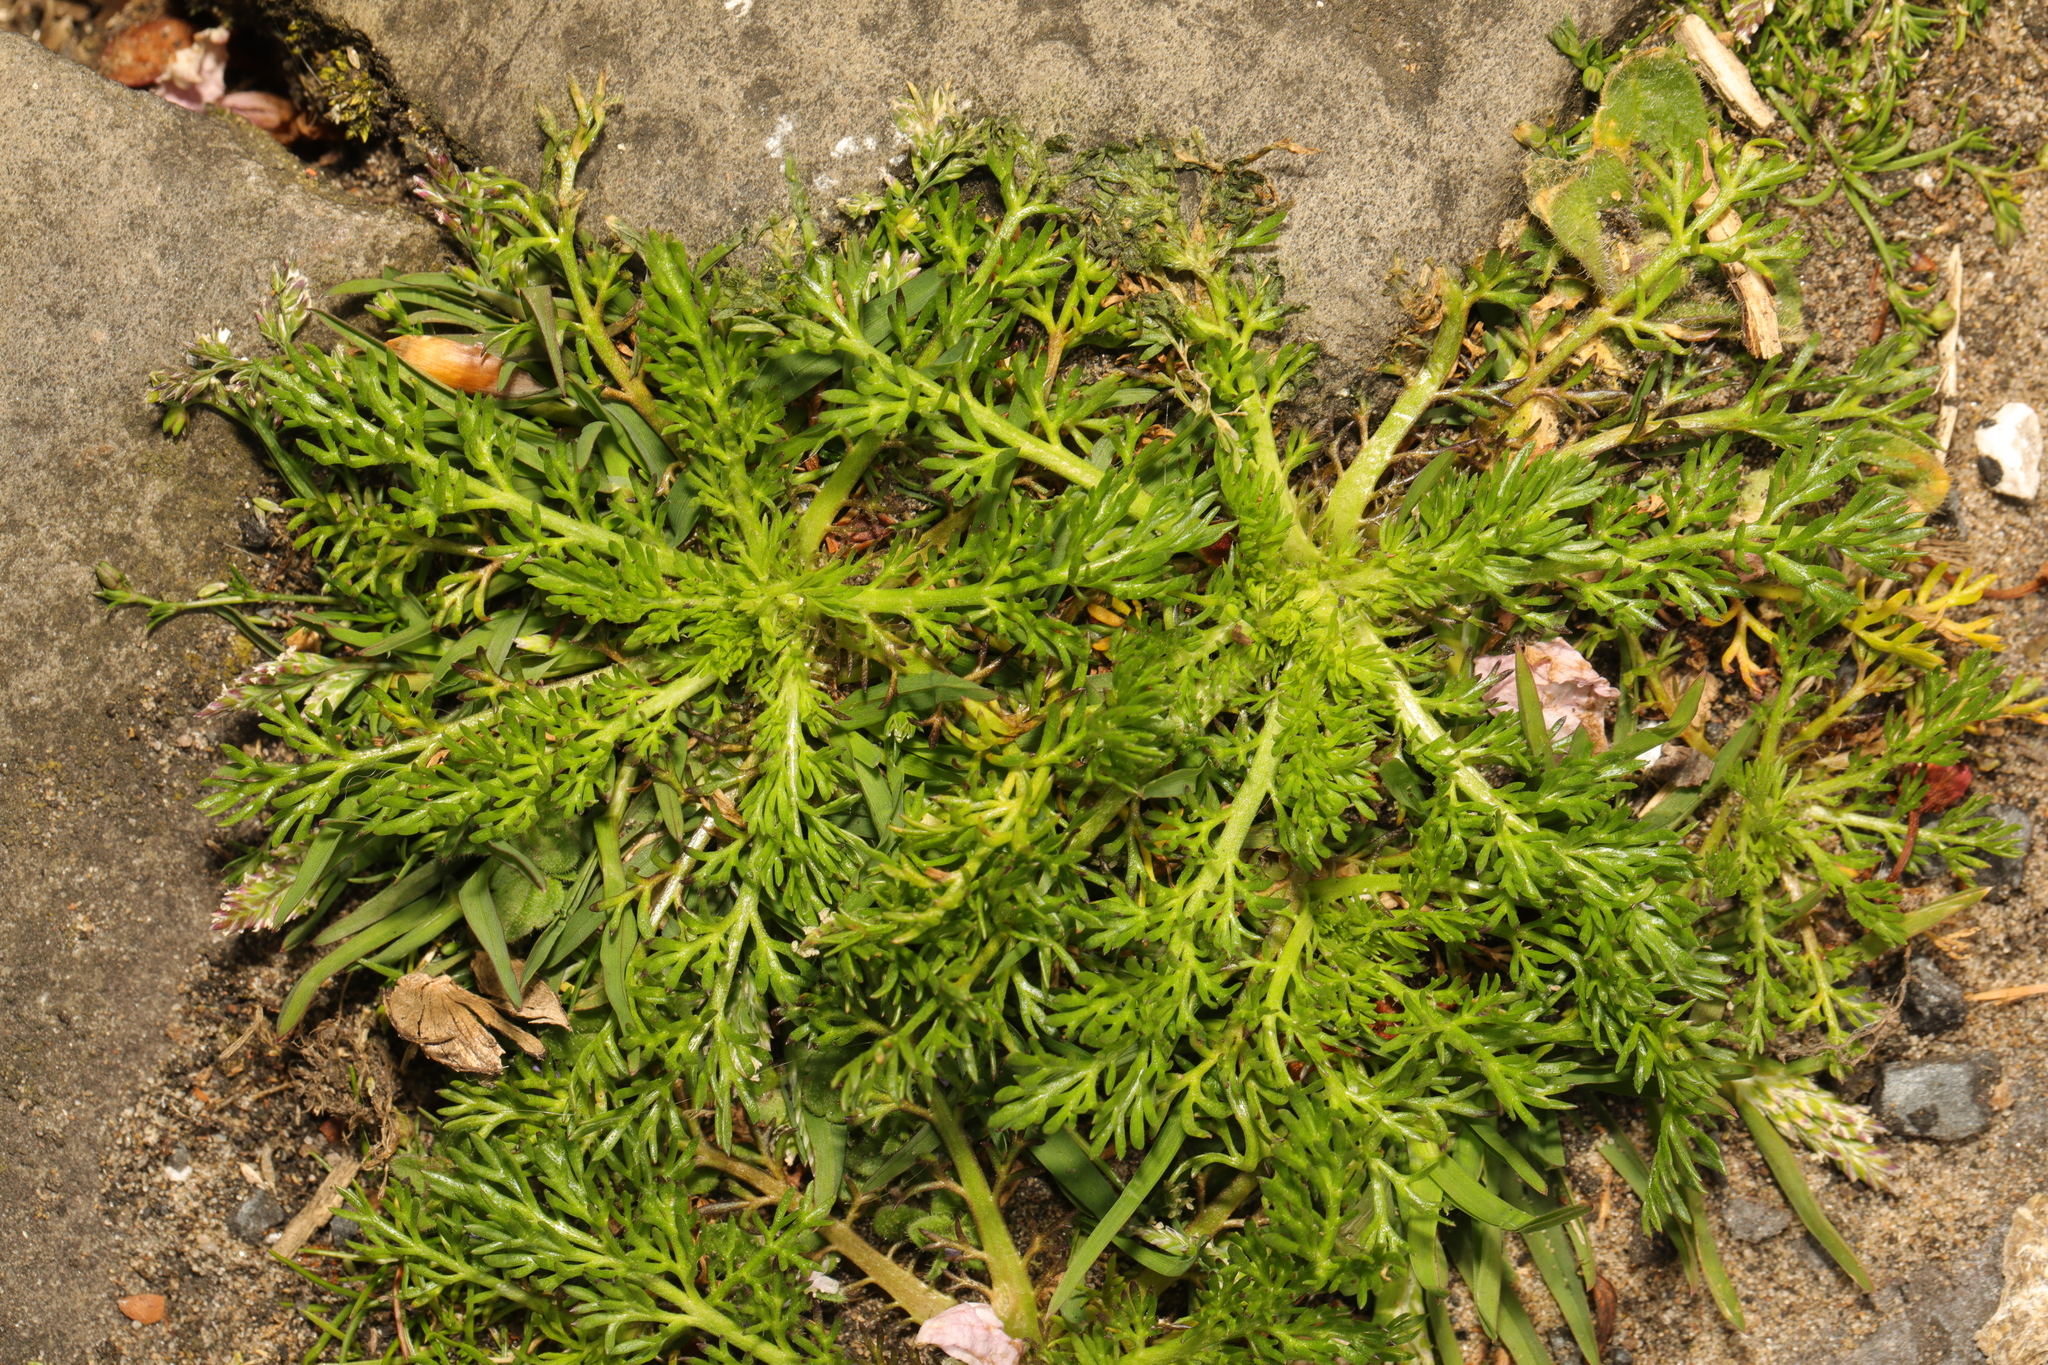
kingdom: Plantae
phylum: Tracheophyta
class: Magnoliopsida
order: Asterales
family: Asteraceae
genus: Matricaria
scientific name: Matricaria discoidea
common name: Disc mayweed
